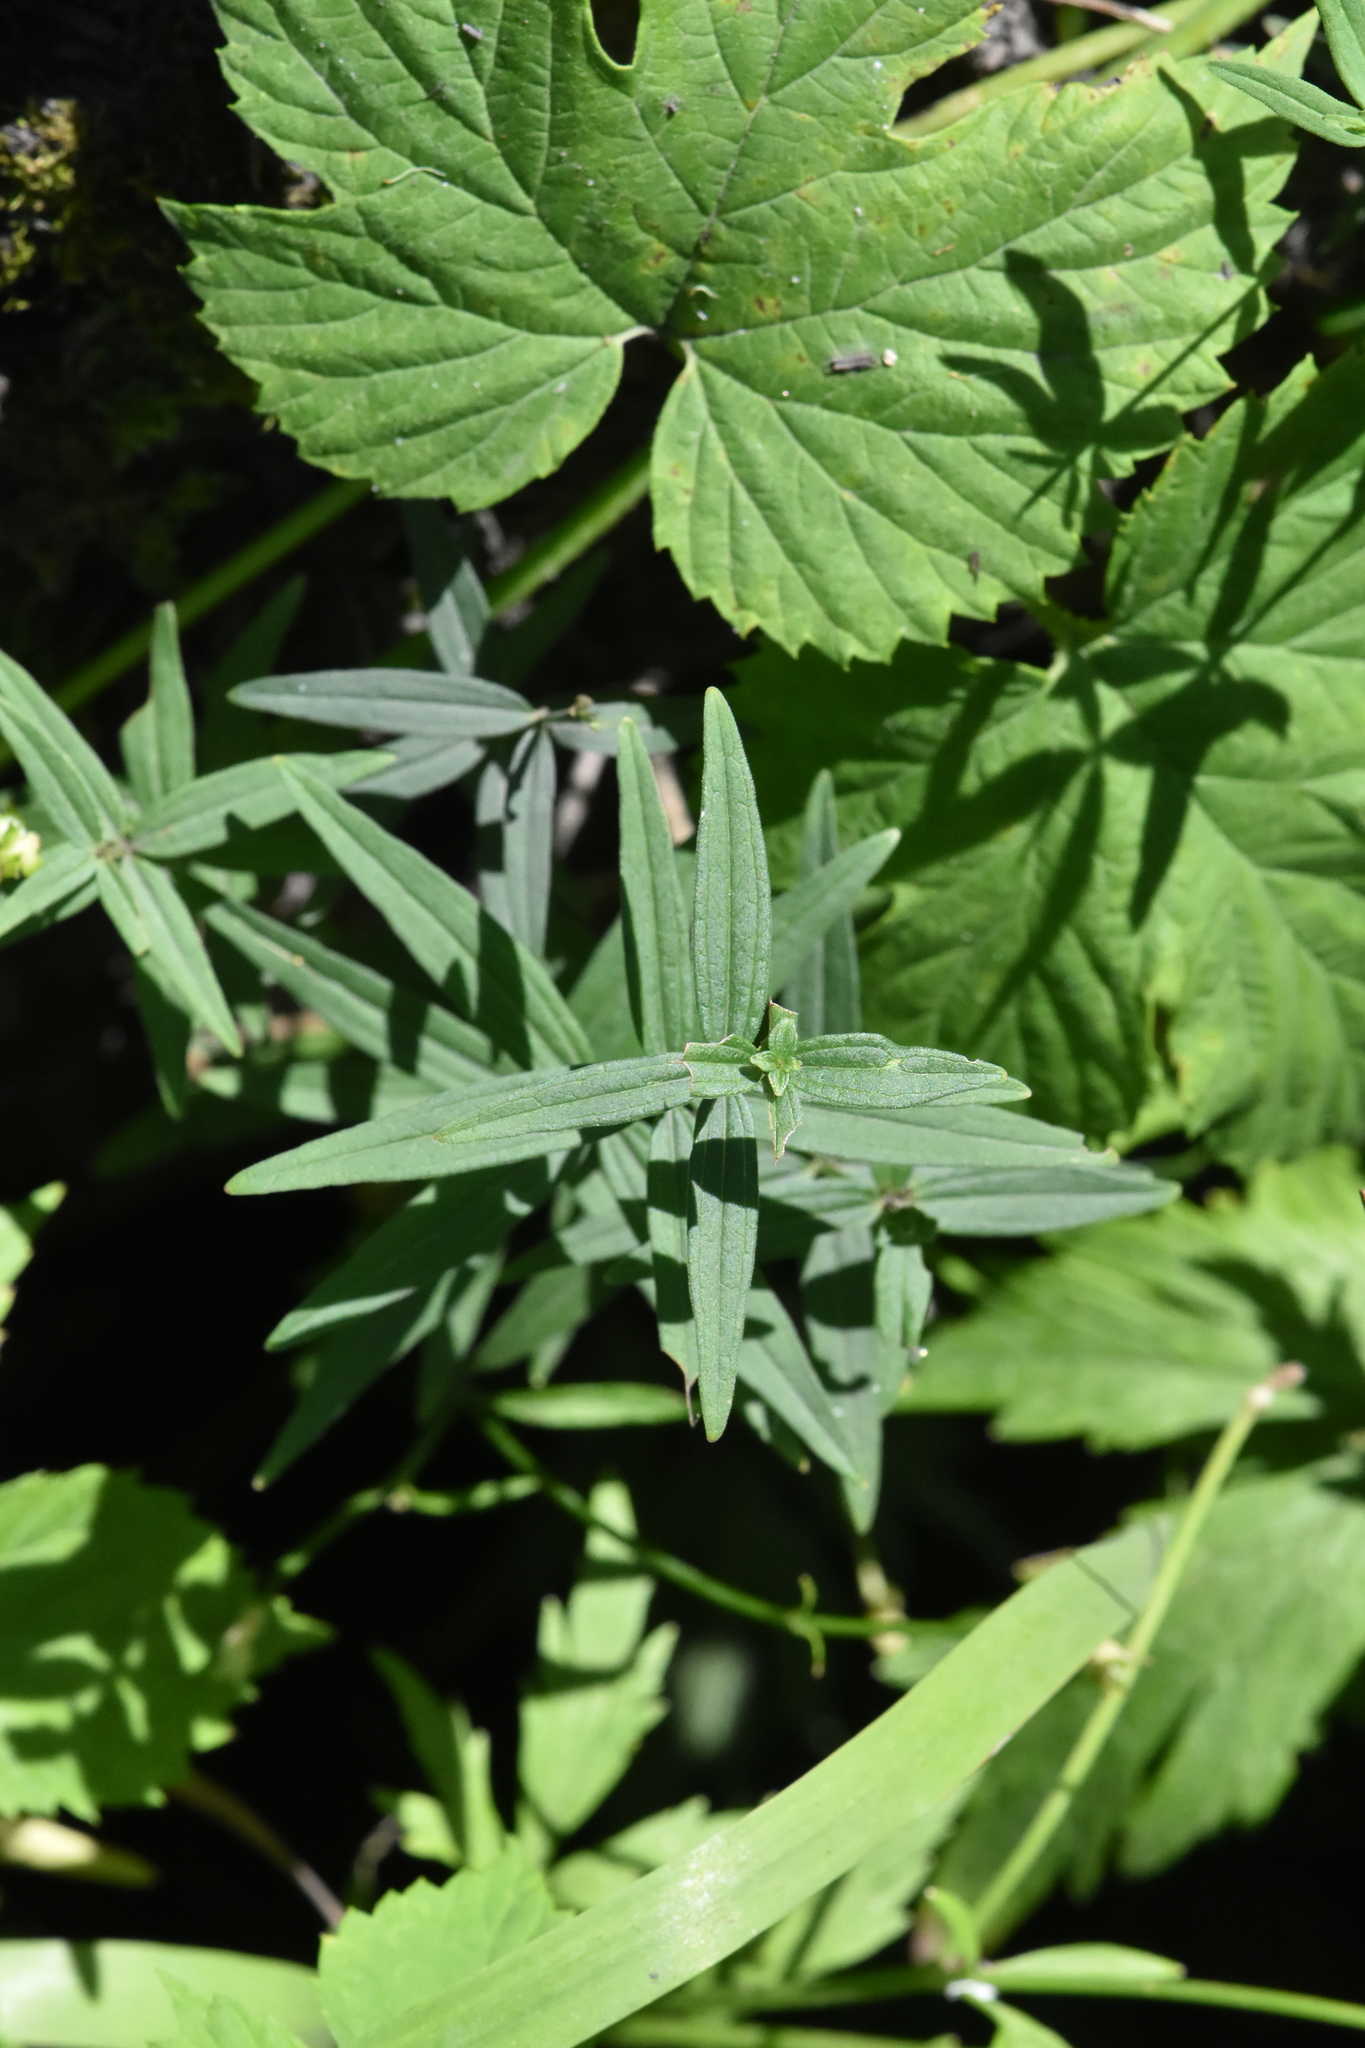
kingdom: Plantae
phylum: Tracheophyta
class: Magnoliopsida
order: Gentianales
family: Rubiaceae
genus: Galium
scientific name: Galium boreale
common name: Northern bedstraw
